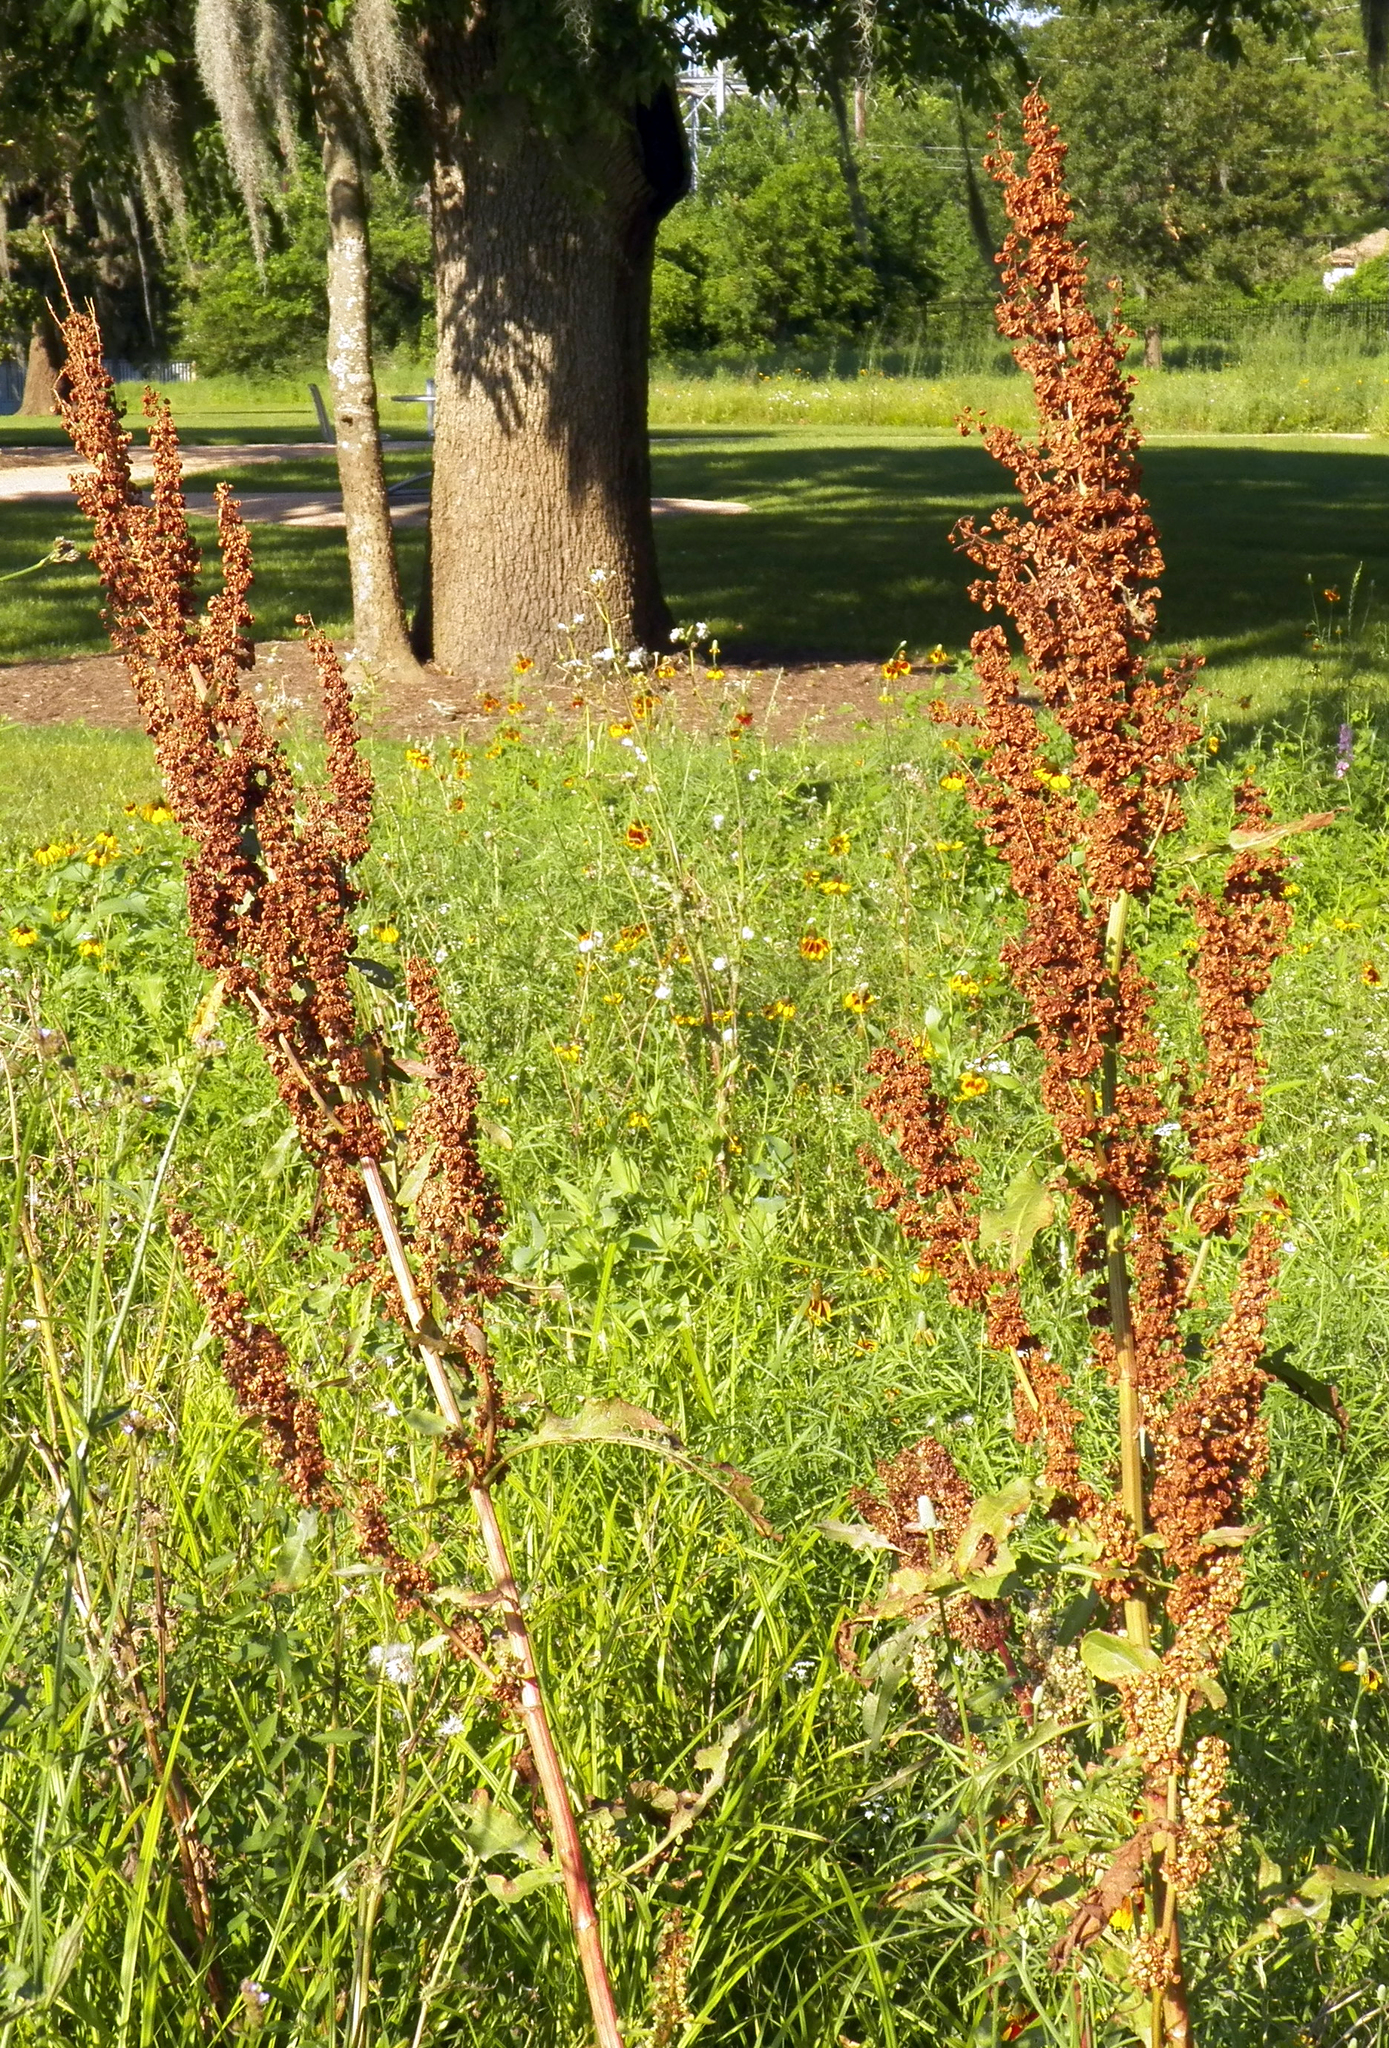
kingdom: Plantae
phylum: Tracheophyta
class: Magnoliopsida
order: Caryophyllales
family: Polygonaceae
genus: Rumex
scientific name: Rumex crispus
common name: Curled dock
